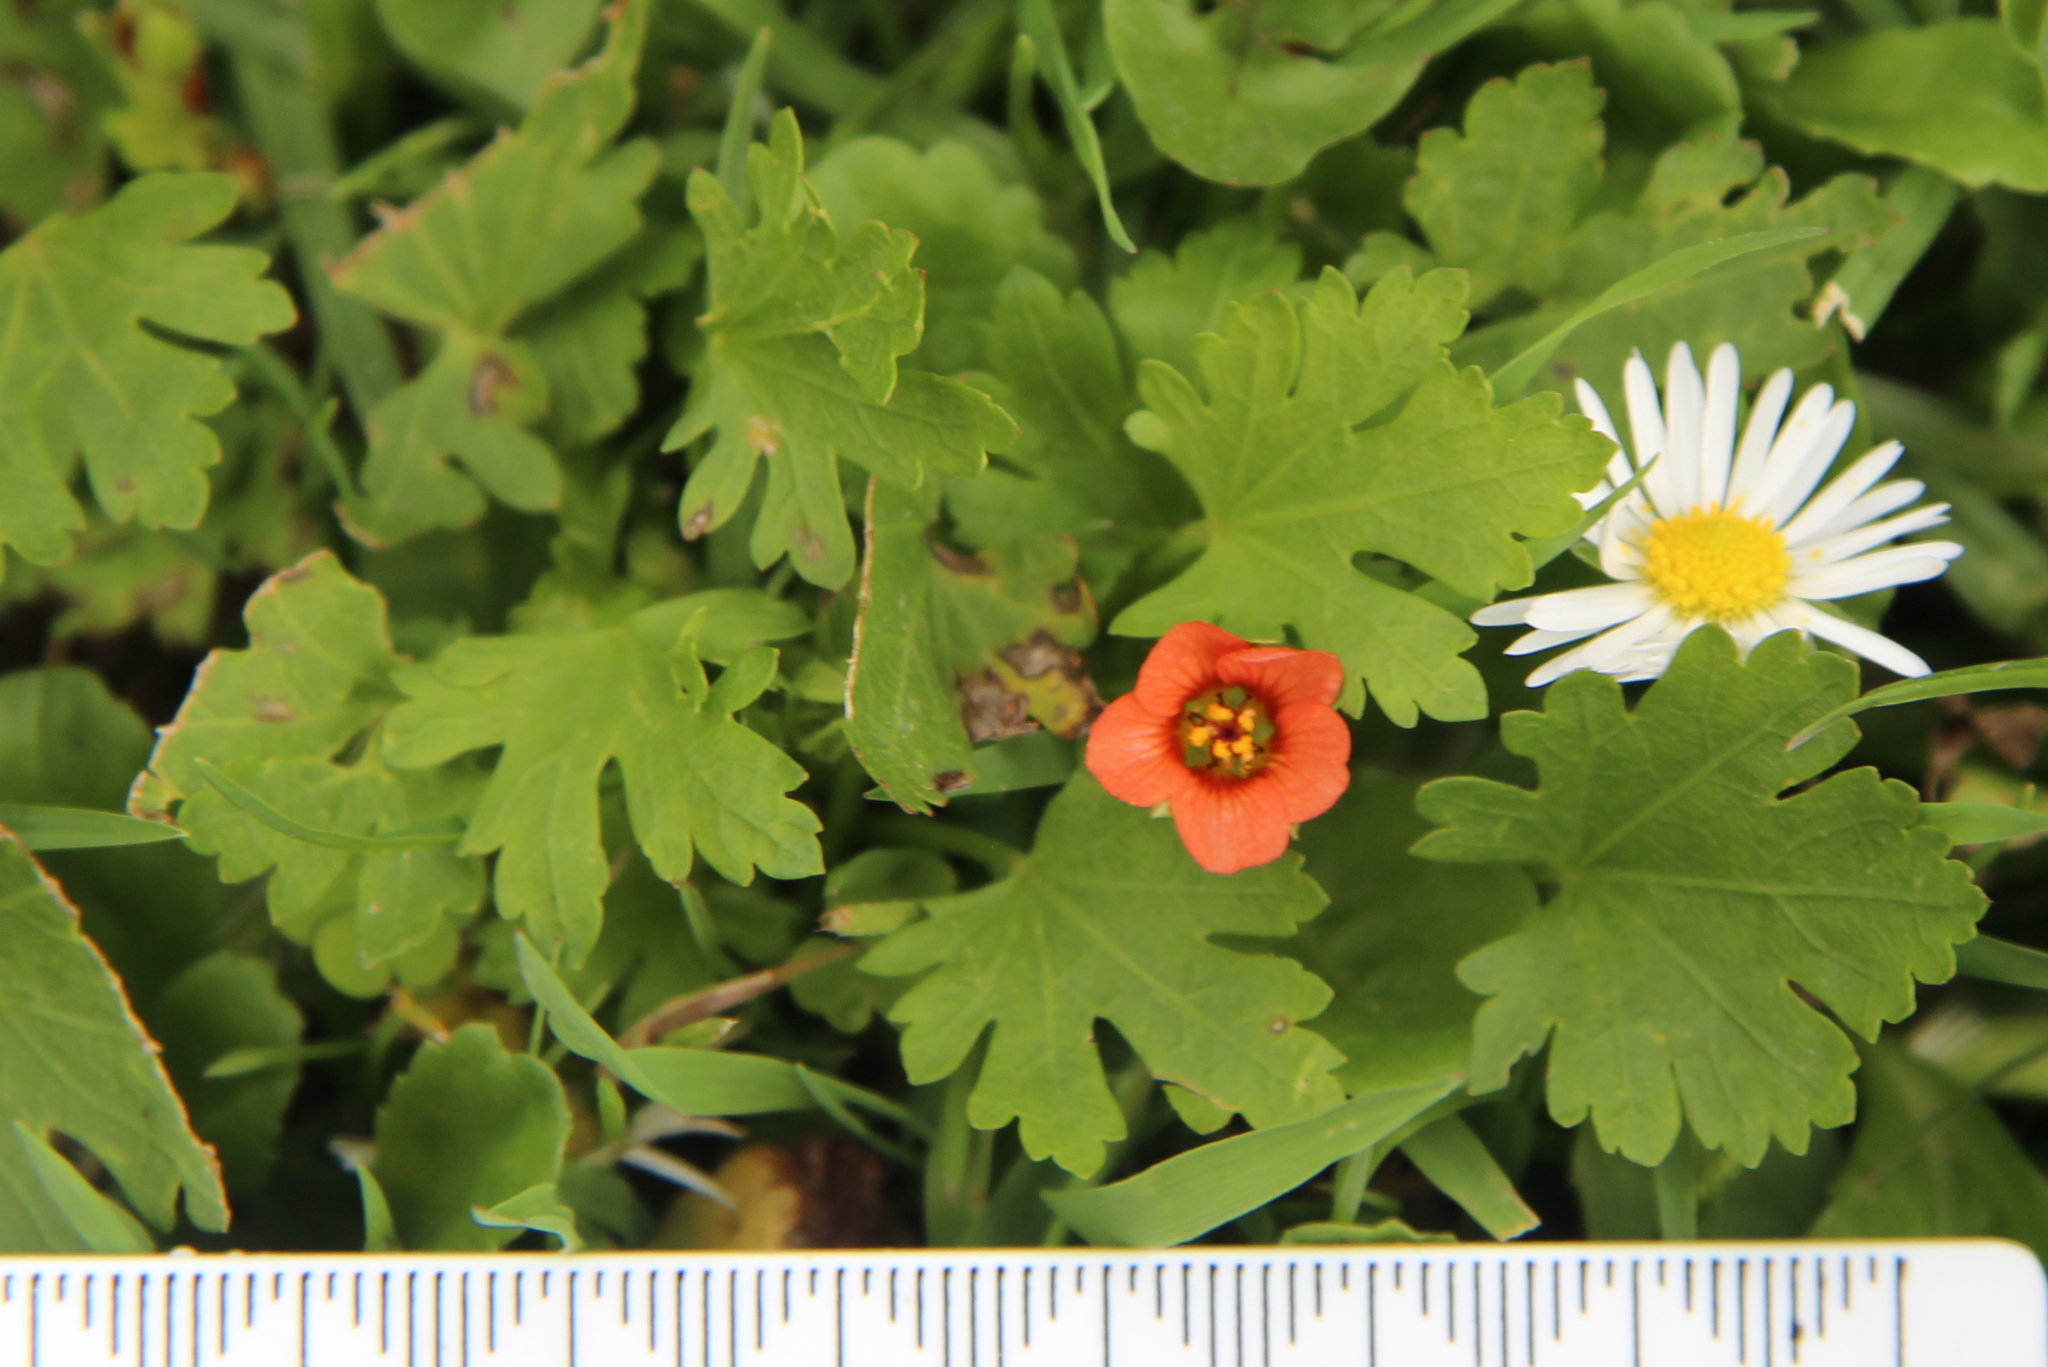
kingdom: Plantae
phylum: Tracheophyta
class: Magnoliopsida
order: Malvales
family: Malvaceae
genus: Modiola
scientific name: Modiola caroliniana
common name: Carolina bristlemallow
